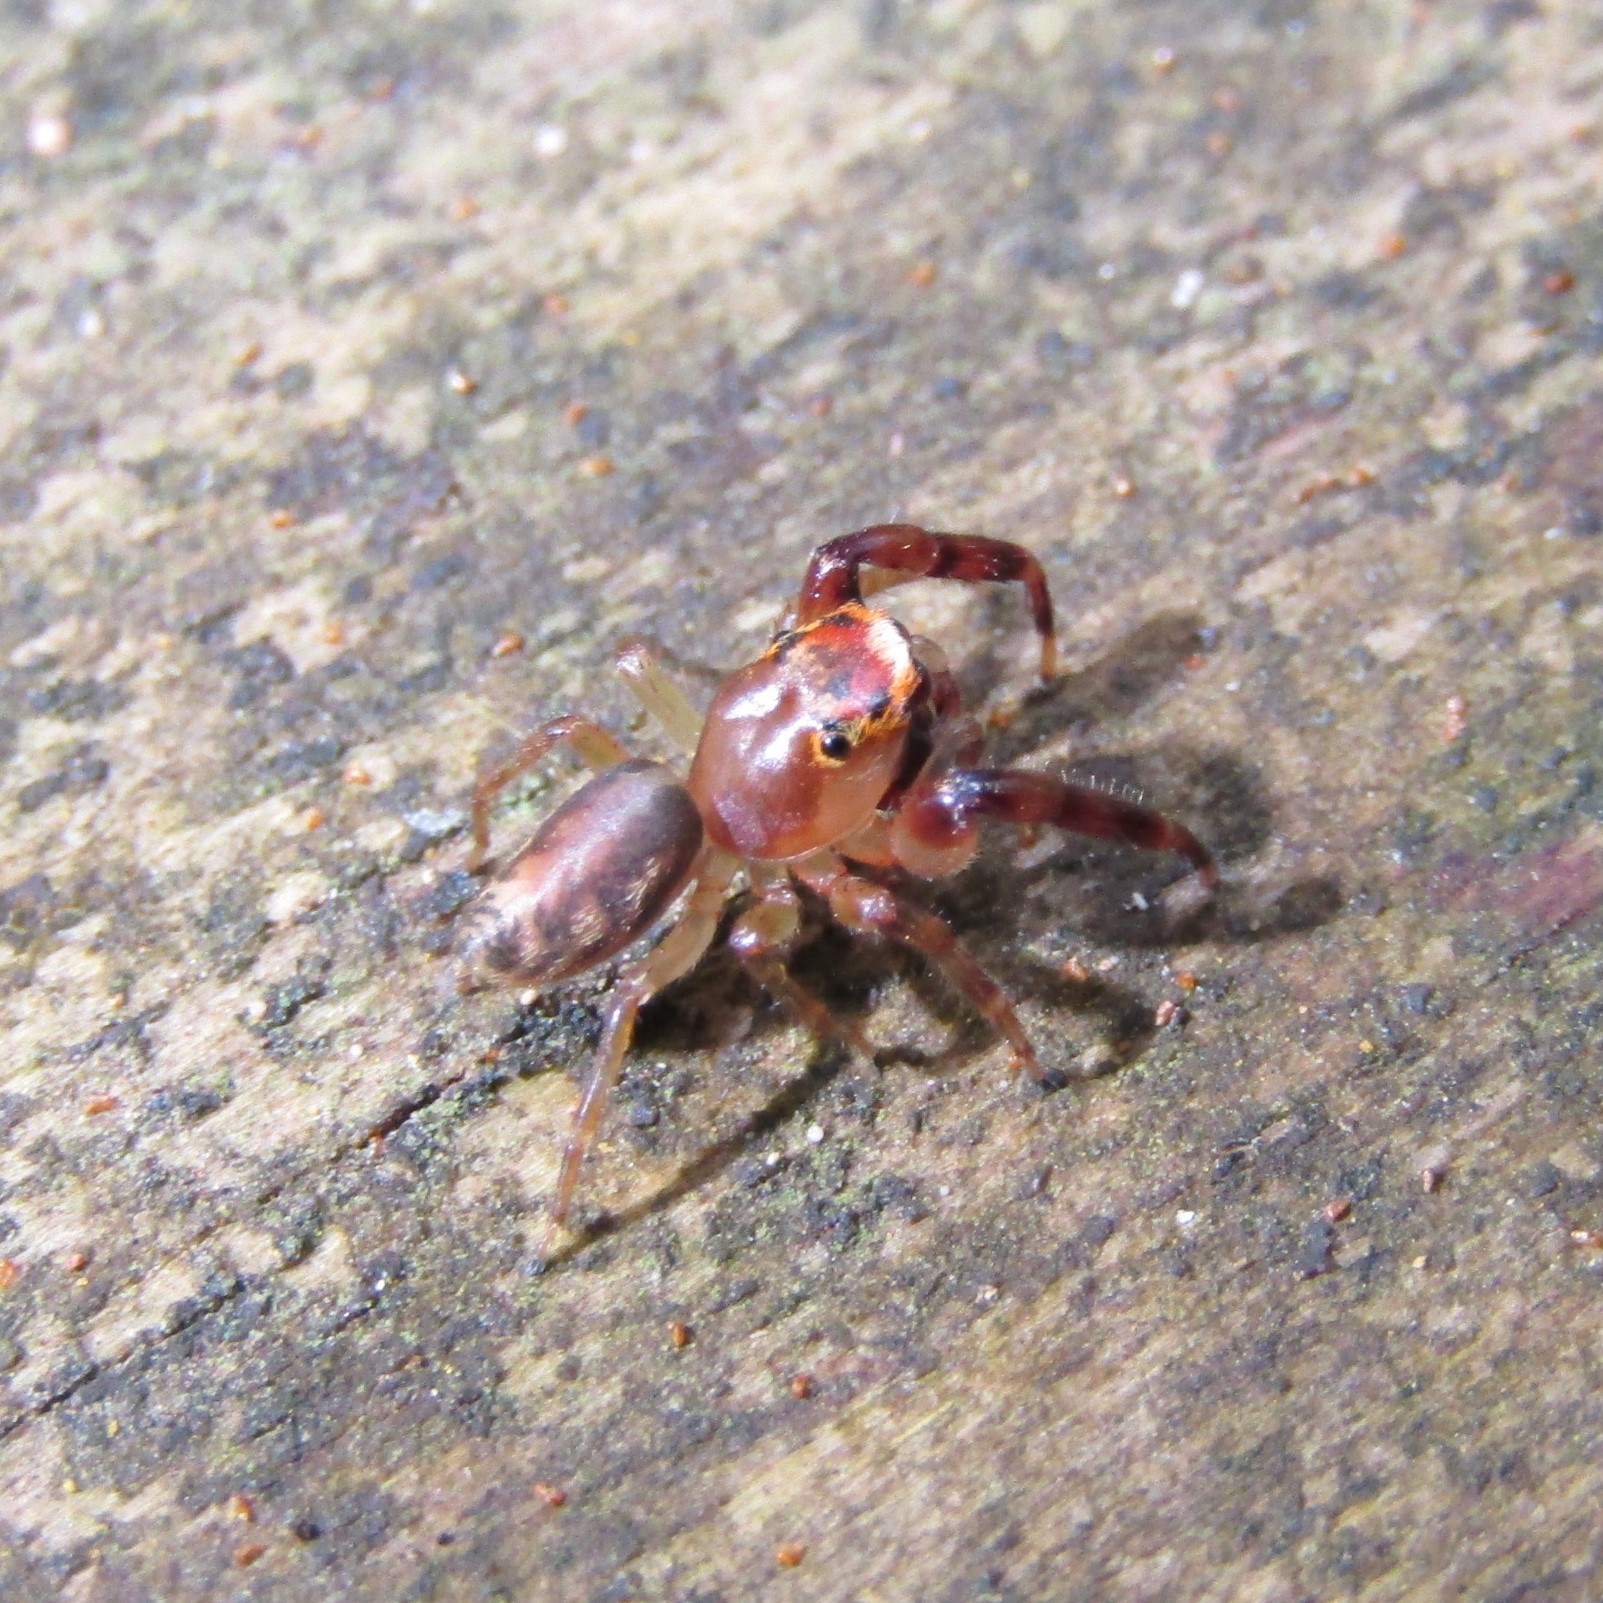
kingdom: Animalia
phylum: Arthropoda
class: Arachnida
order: Araneae
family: Salticidae
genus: Trite
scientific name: Trite mustilina
